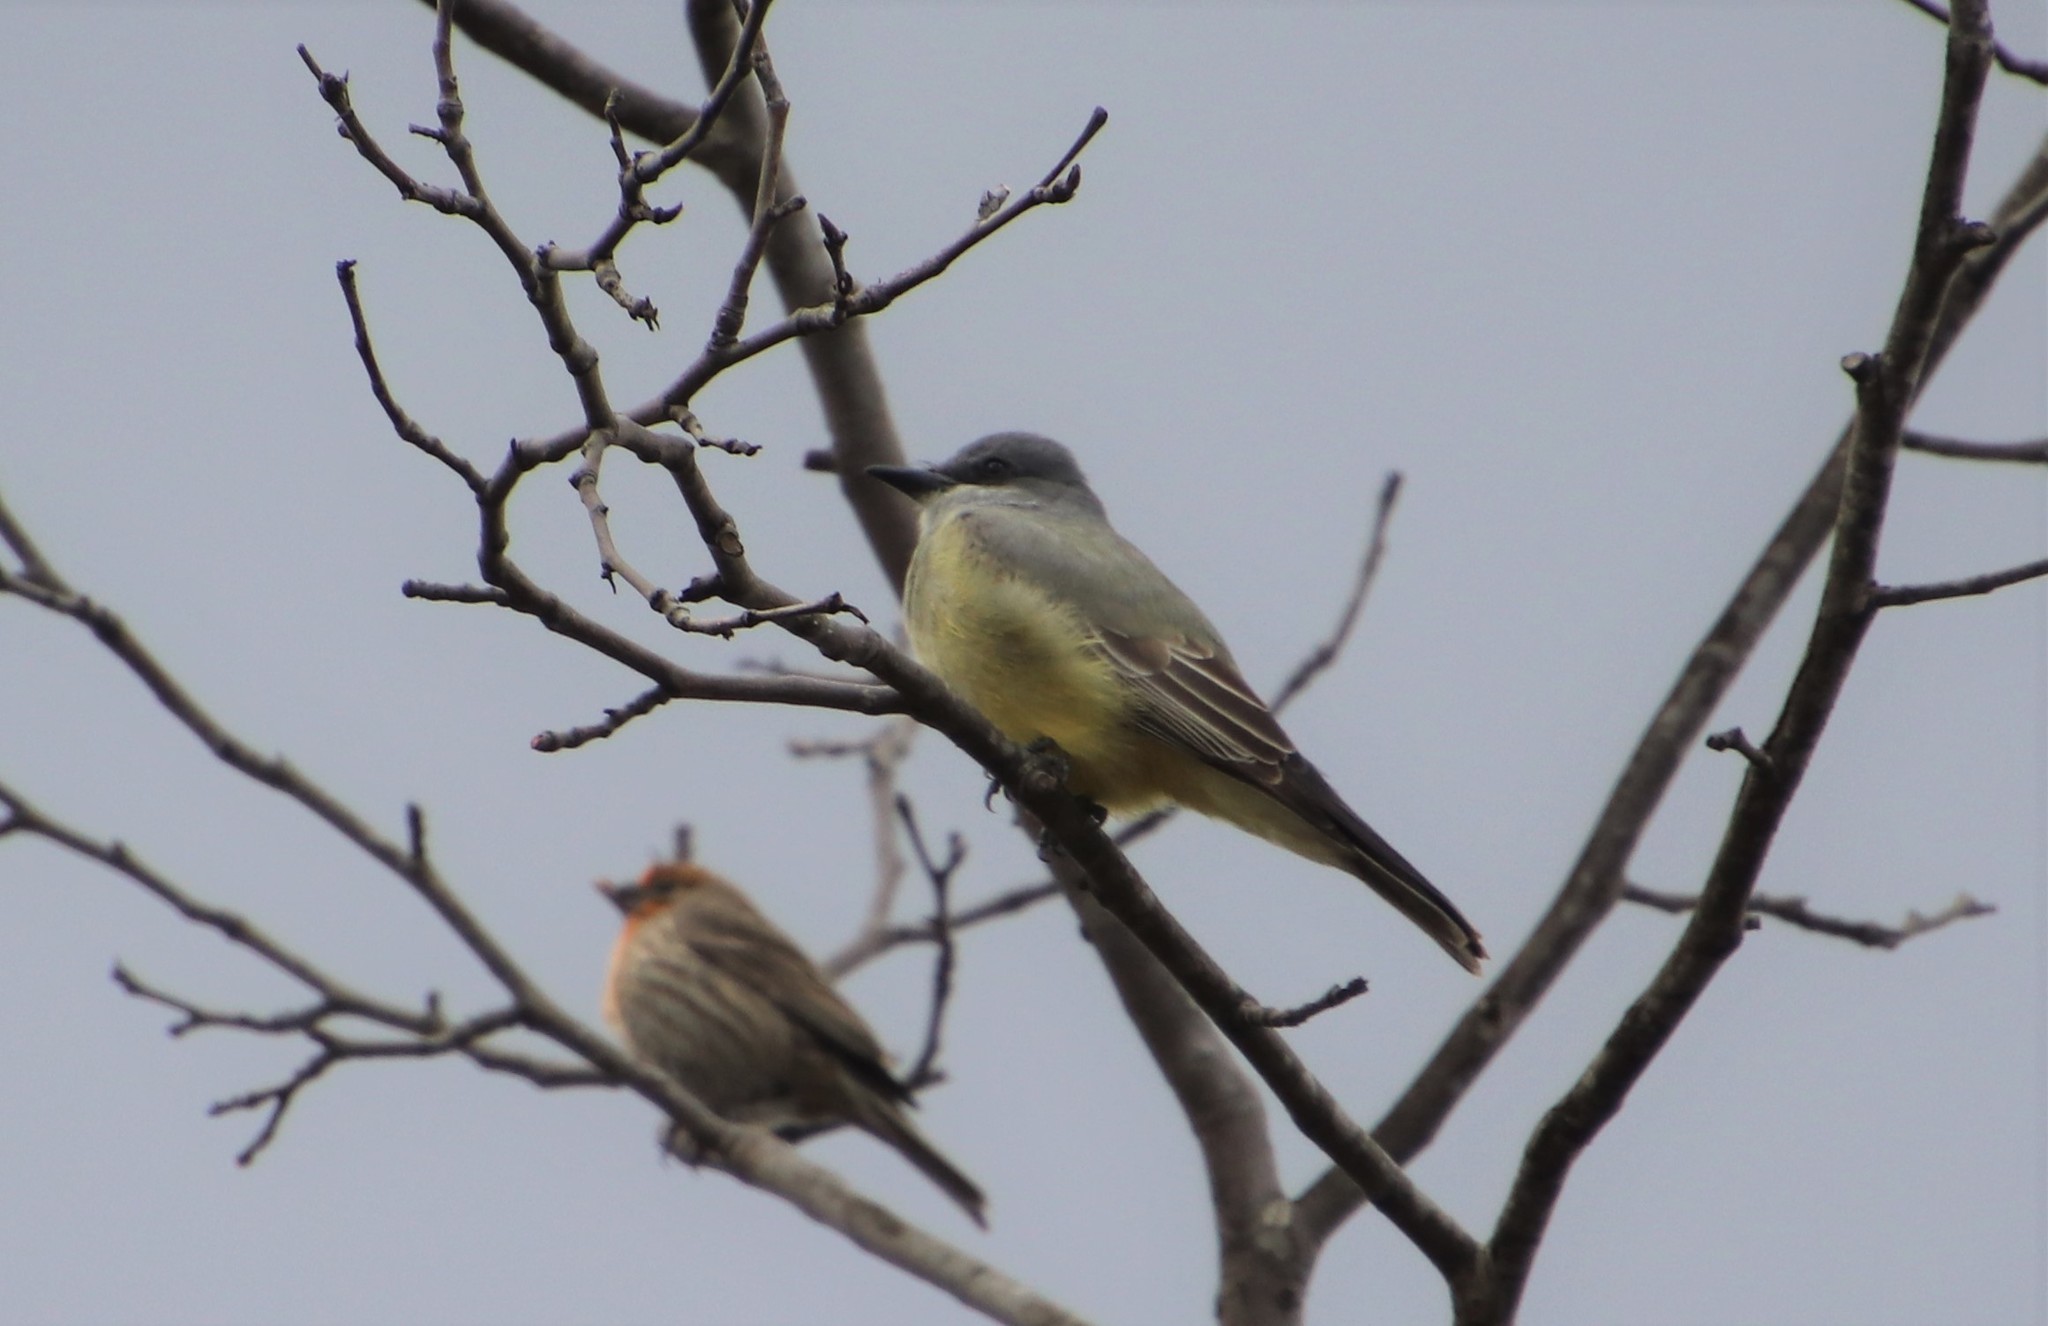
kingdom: Animalia
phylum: Chordata
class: Aves
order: Passeriformes
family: Tyrannidae
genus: Tyrannus
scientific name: Tyrannus vociferans
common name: Cassin's kingbird
